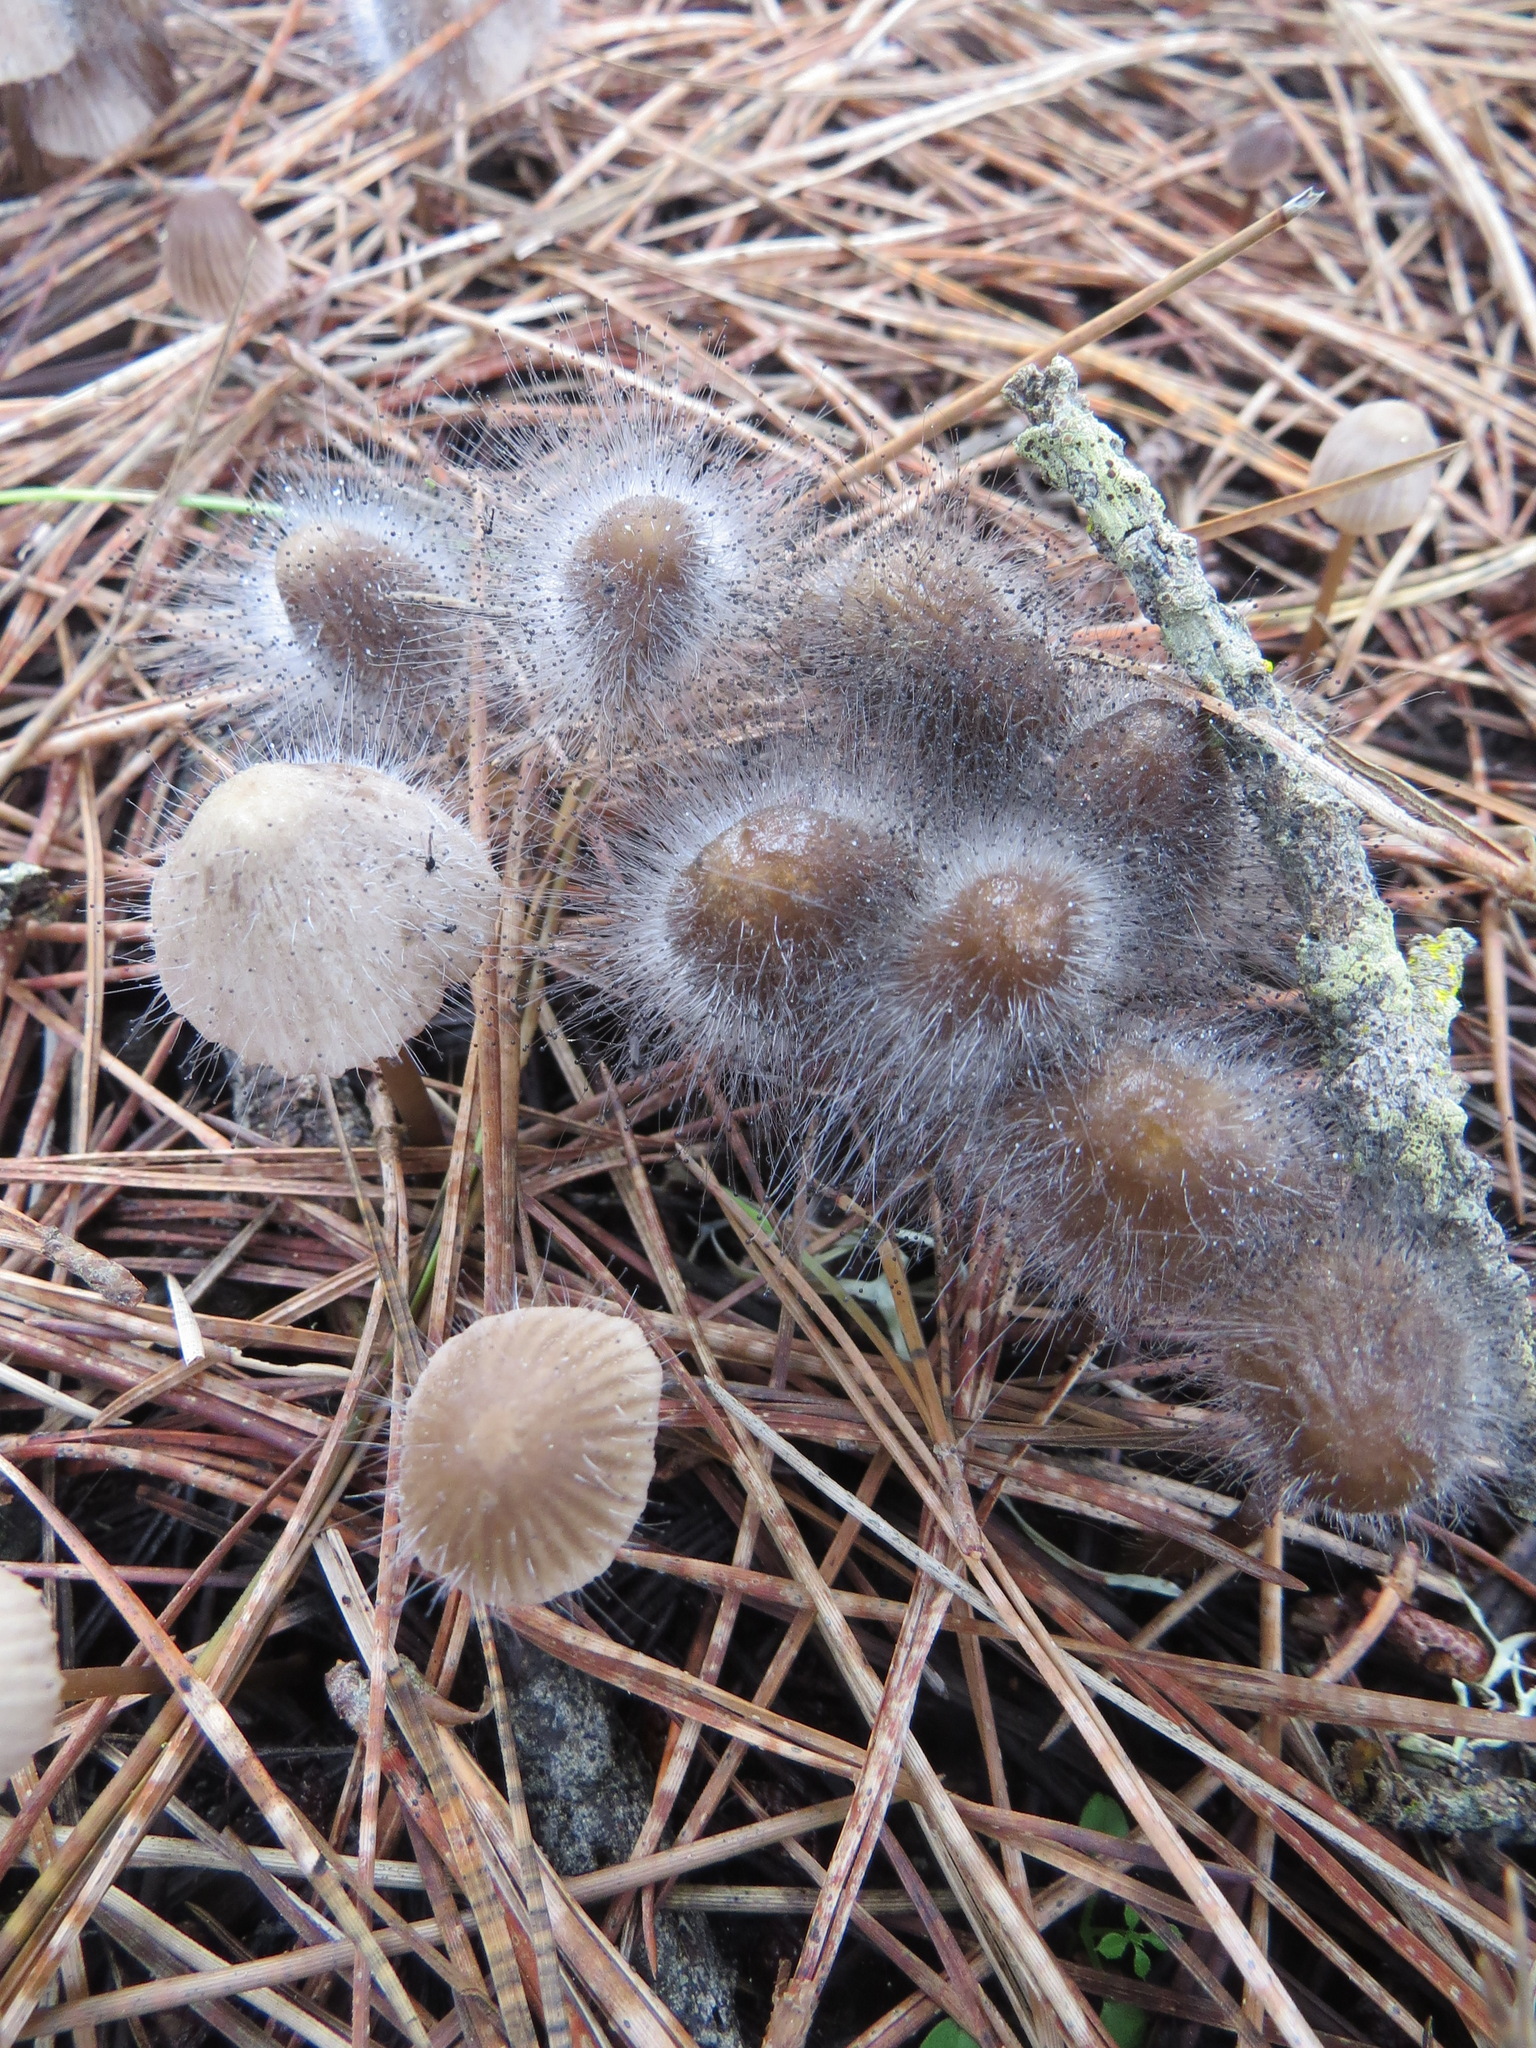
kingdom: Fungi
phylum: Mucoromycota
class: Mucoromycetes
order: Mucorales
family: Phycomycetaceae
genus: Spinellus
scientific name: Spinellus fusiger
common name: Bonnet mould
